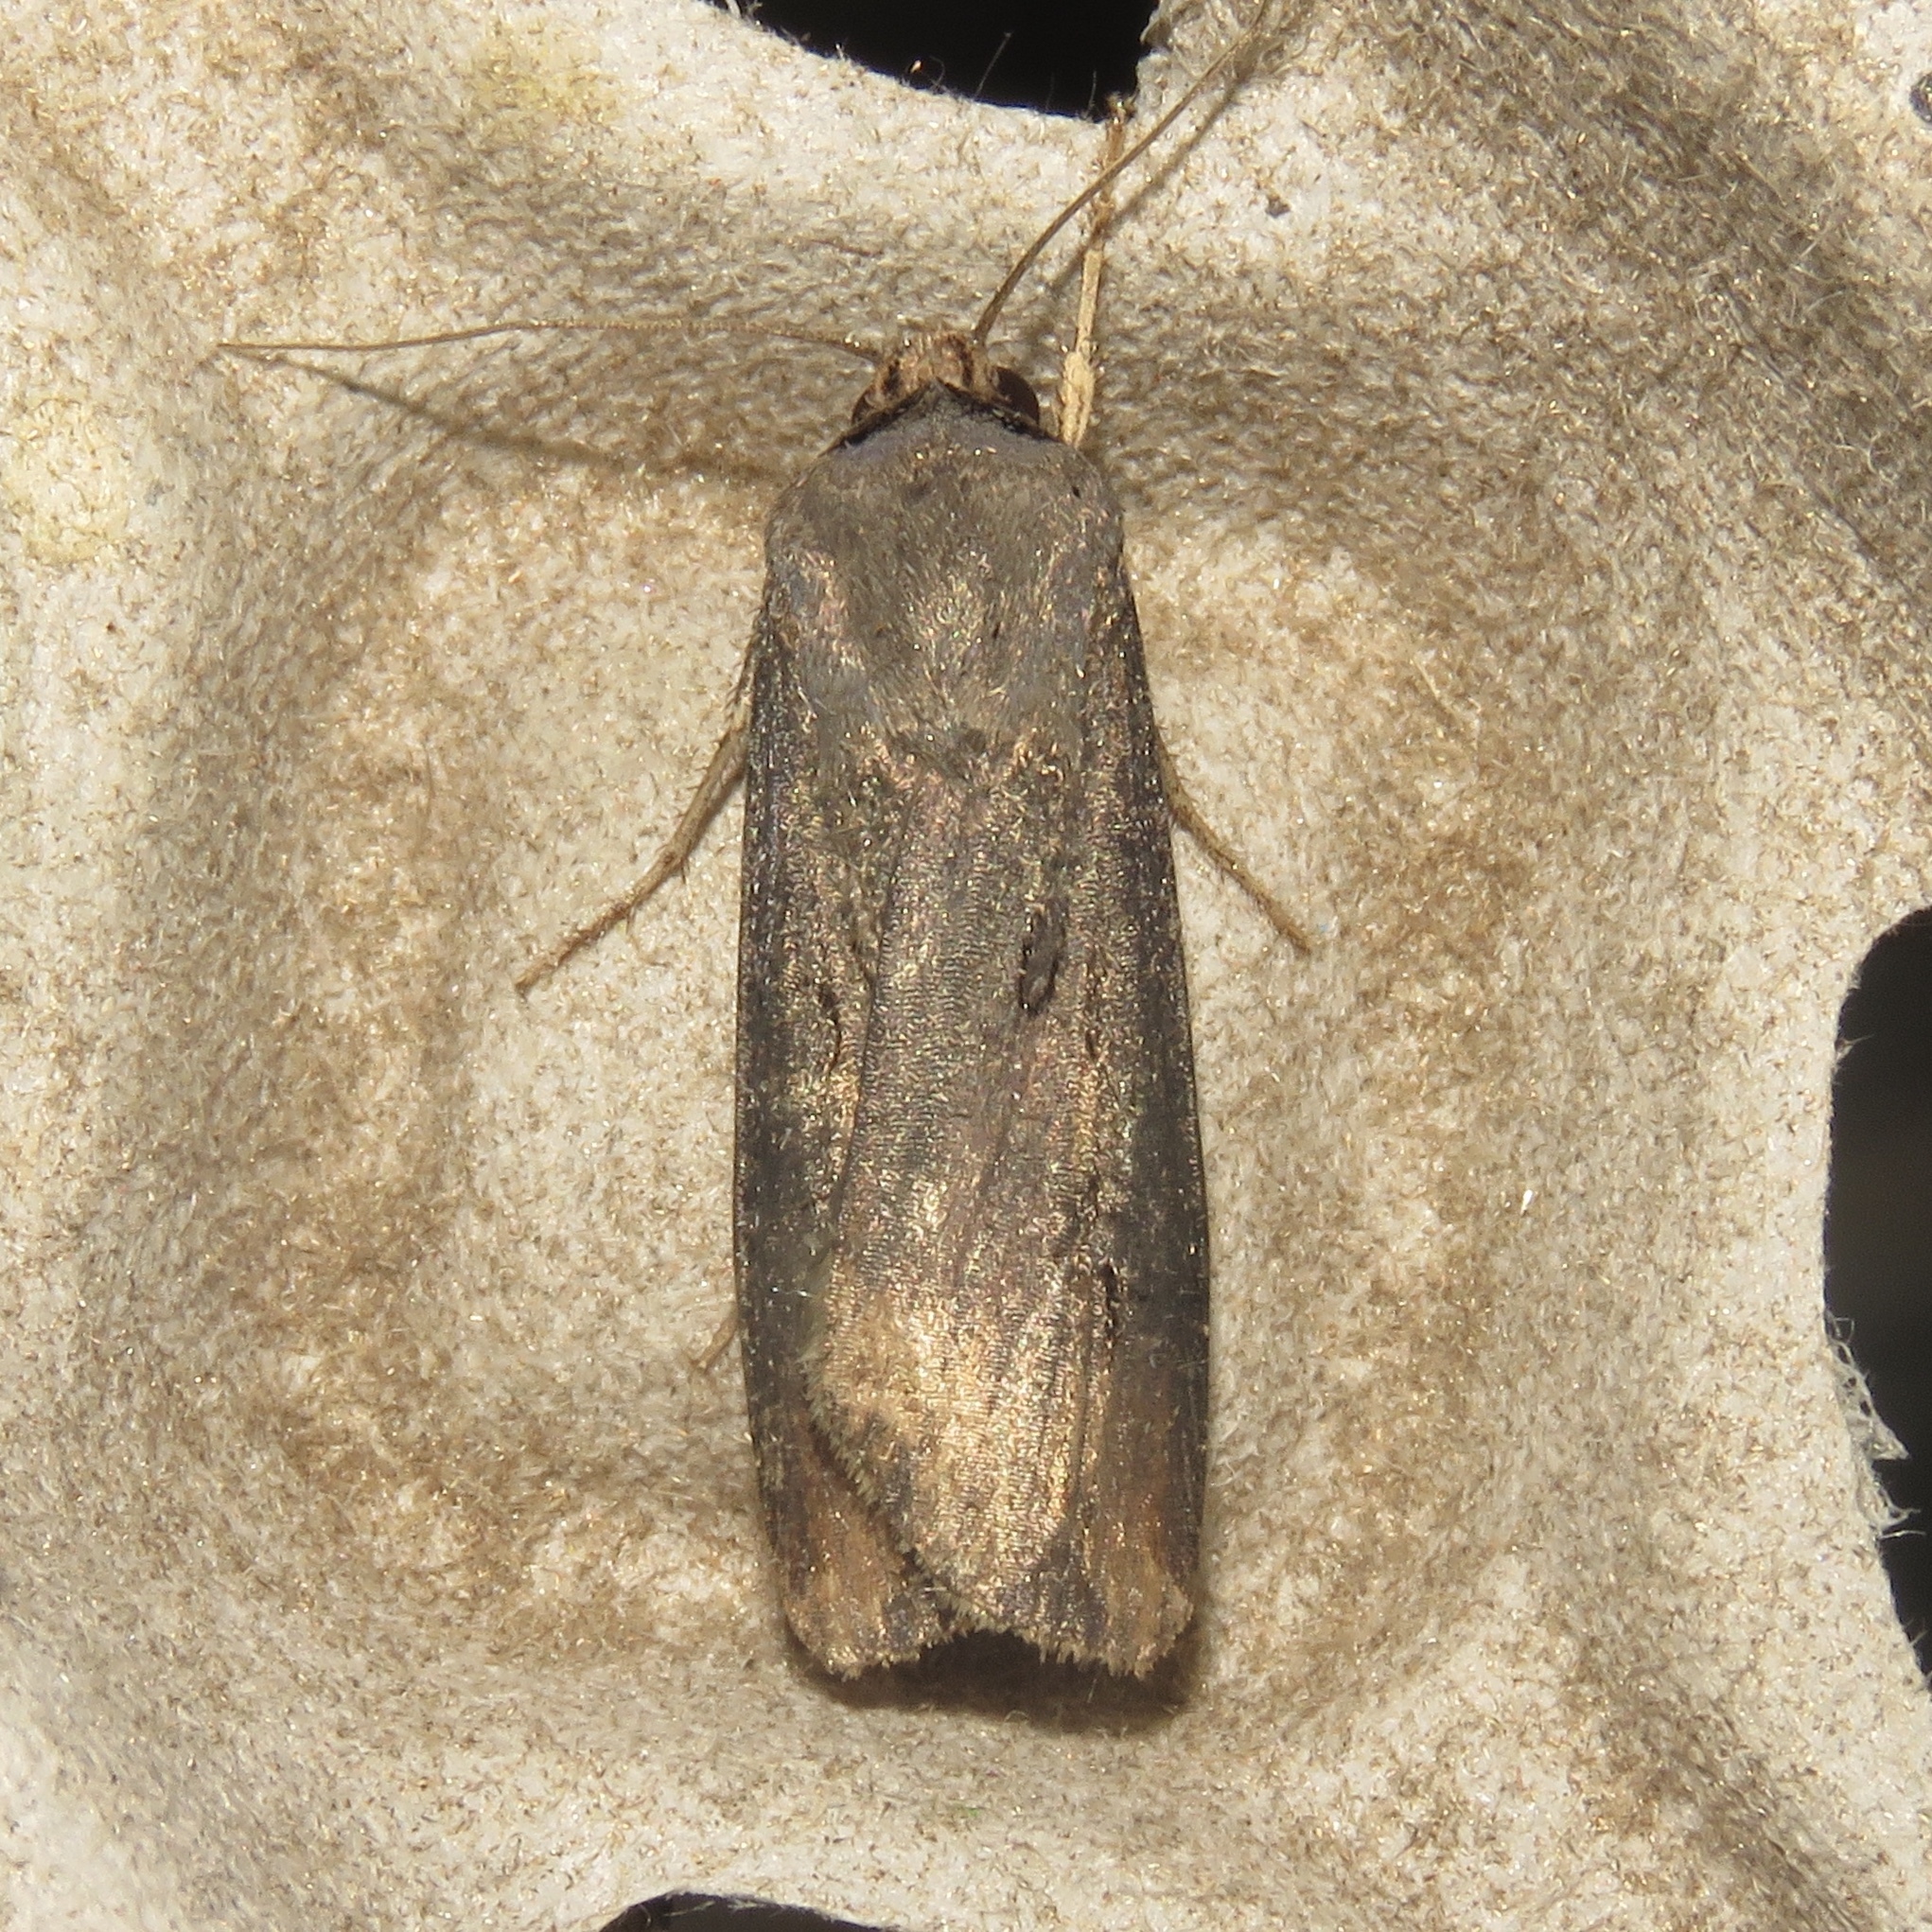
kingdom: Animalia
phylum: Arthropoda
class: Insecta
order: Lepidoptera
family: Noctuidae
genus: Agrotis
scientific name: Agrotis ipsilon
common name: Dark sword-grass
